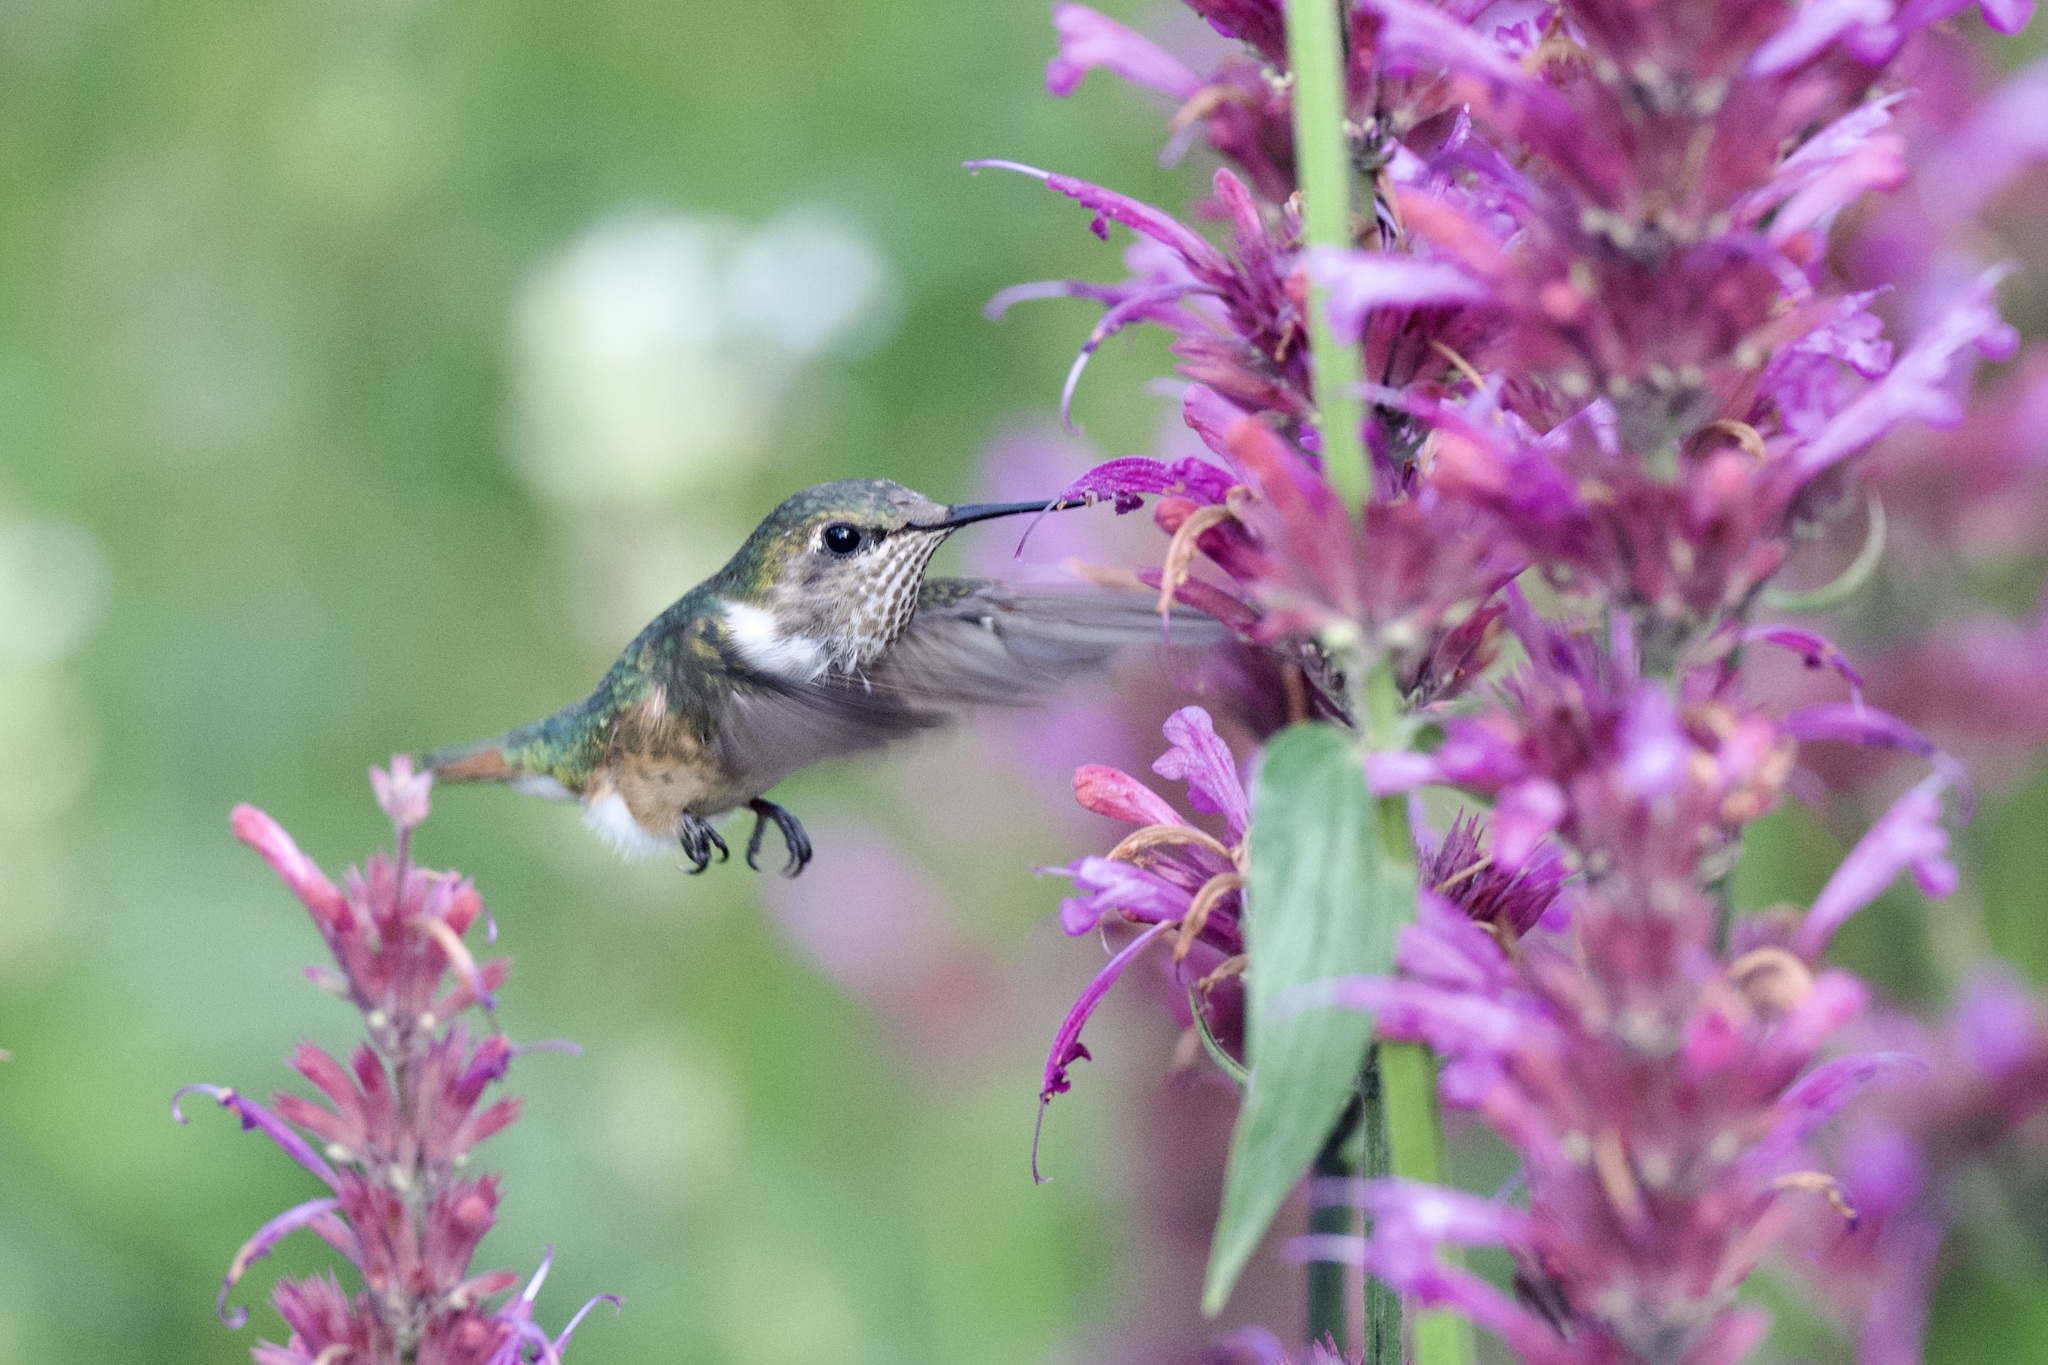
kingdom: Animalia
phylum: Chordata
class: Aves
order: Apodiformes
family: Trochilidae
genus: Selasphorus
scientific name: Selasphorus heloisa
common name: Bumblebee hummingbird
